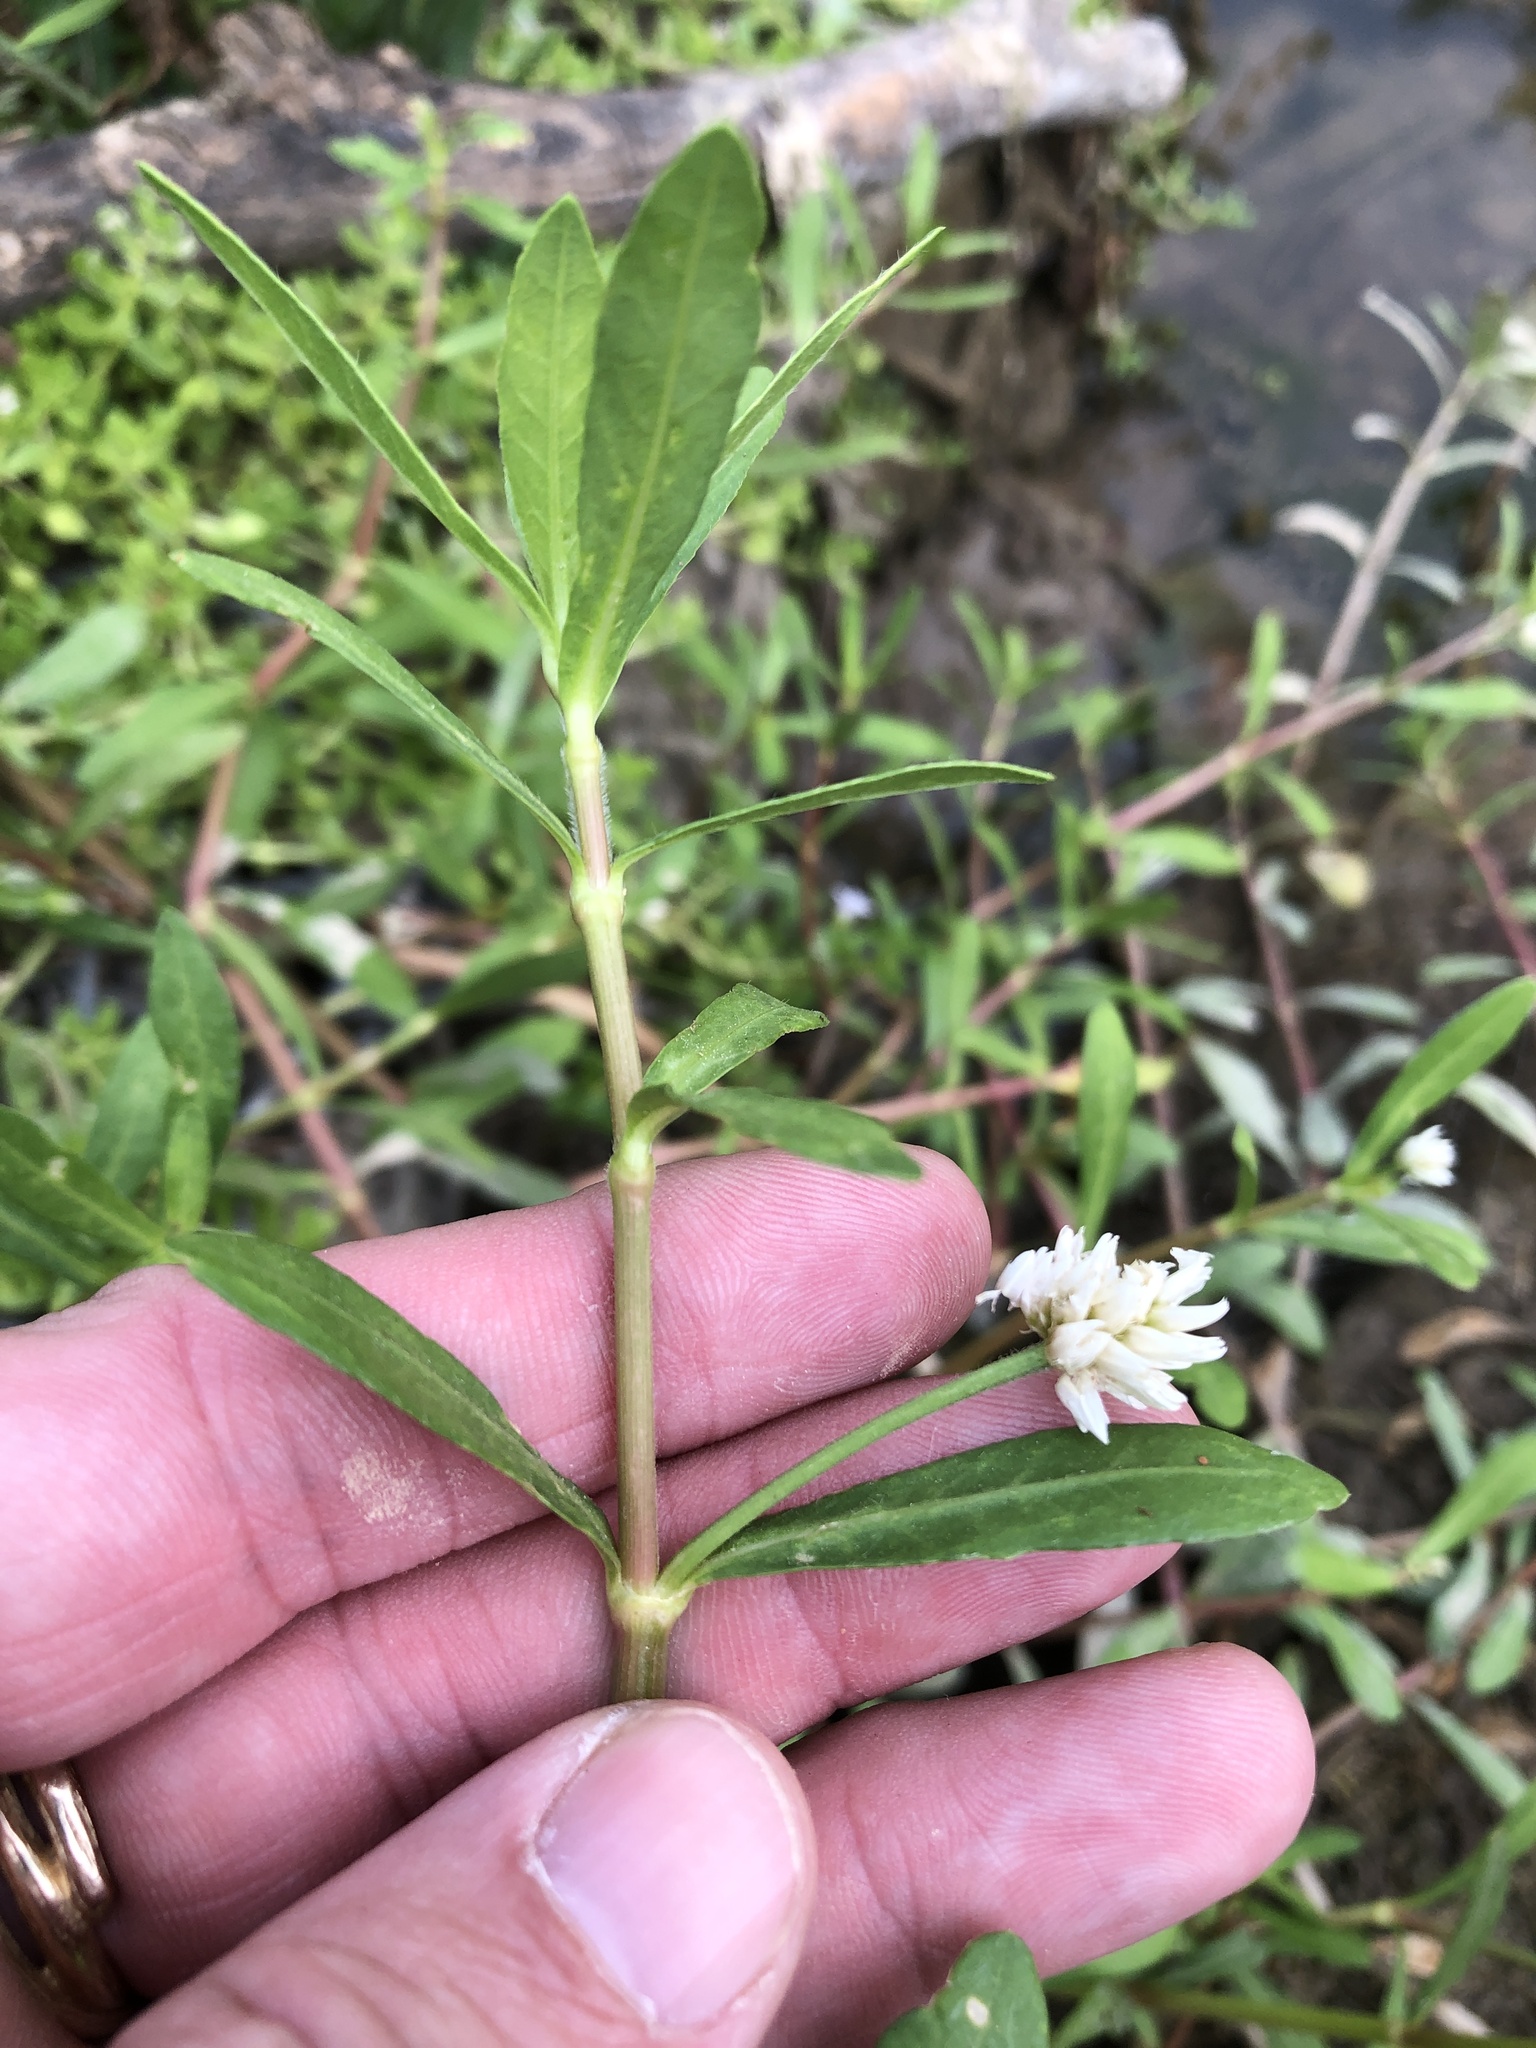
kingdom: Plantae
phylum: Tracheophyta
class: Magnoliopsida
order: Caryophyllales
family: Amaranthaceae
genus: Alternanthera
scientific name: Alternanthera philoxeroides
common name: Alligatorweed
